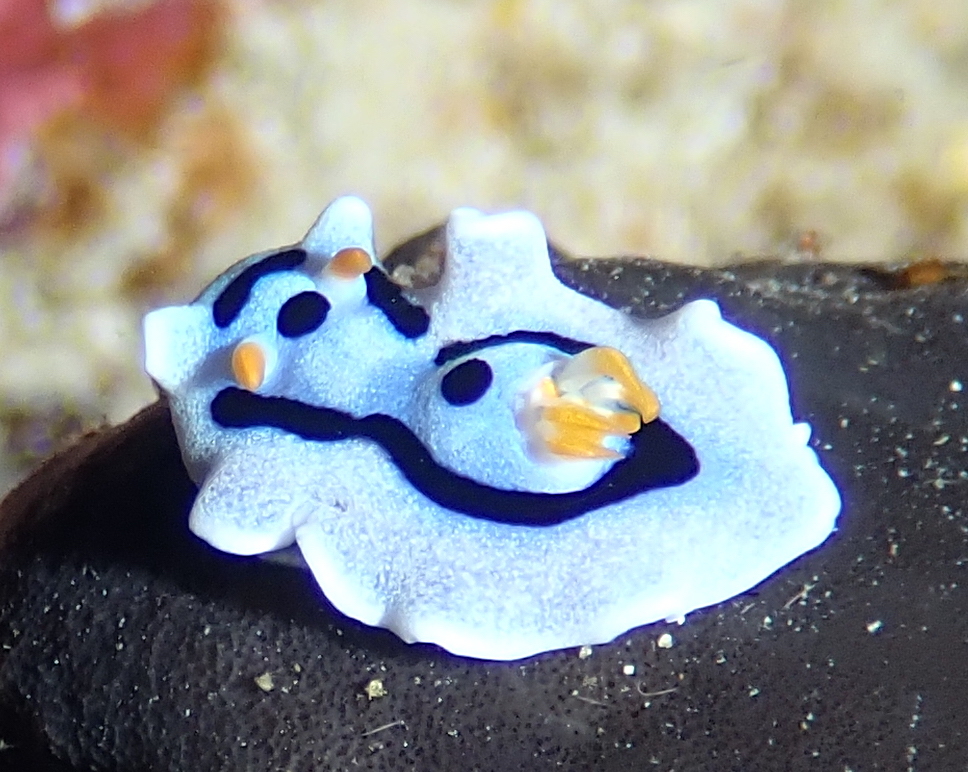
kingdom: Animalia
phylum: Mollusca
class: Gastropoda
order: Nudibranchia
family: Chromodorididae
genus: Chromodoris
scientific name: Chromodoris alcalai
